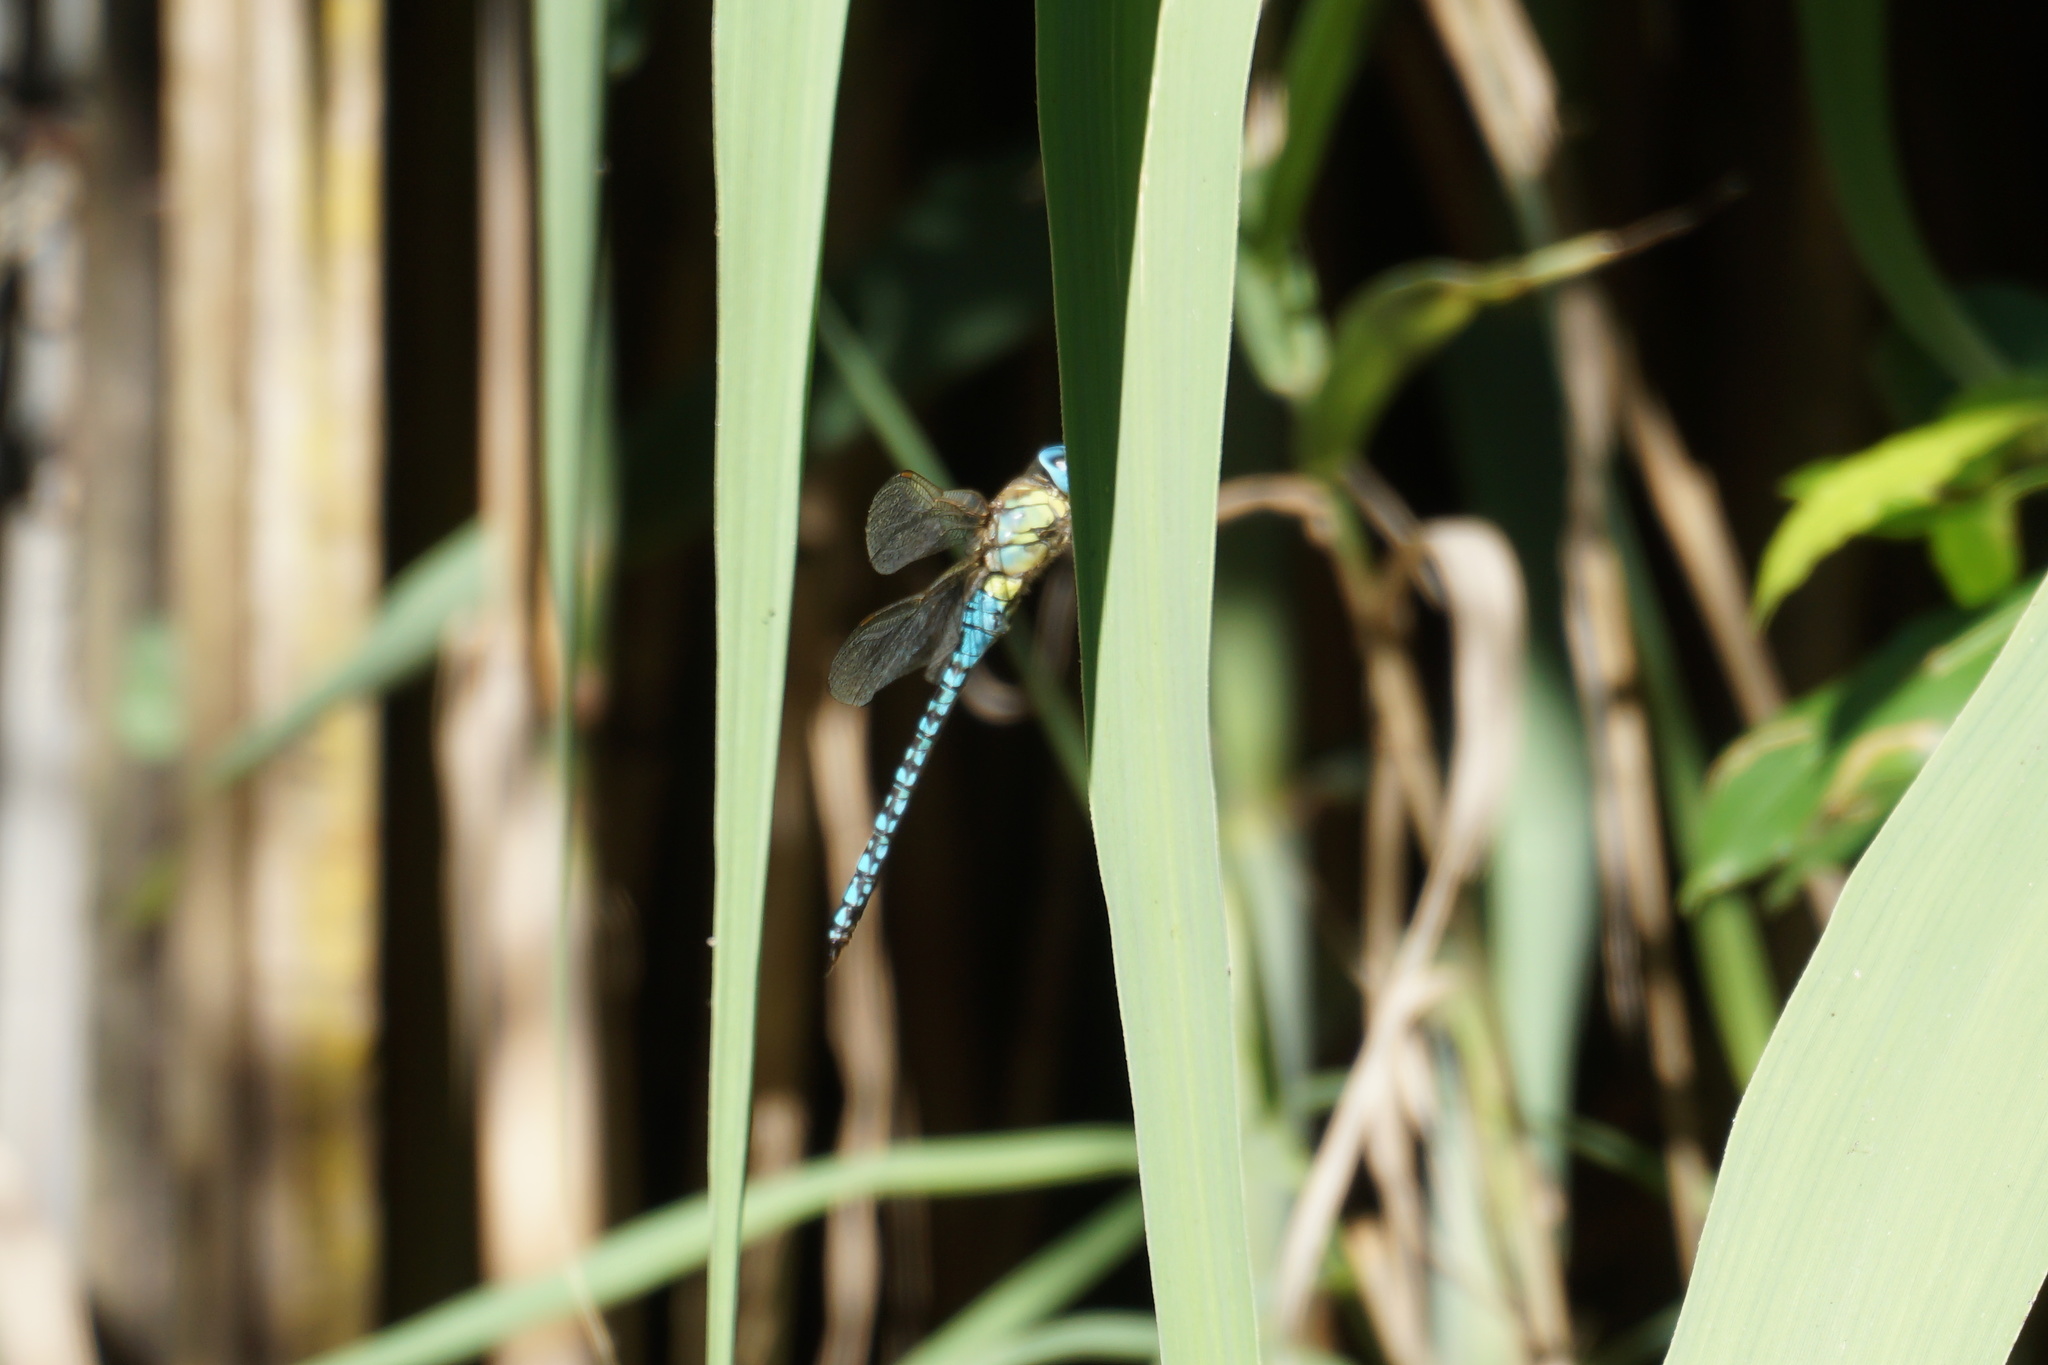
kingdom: Animalia
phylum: Arthropoda
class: Insecta
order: Odonata
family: Aeshnidae
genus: Aeshna
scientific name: Aeshna affinis
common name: Southern migrant hawker
